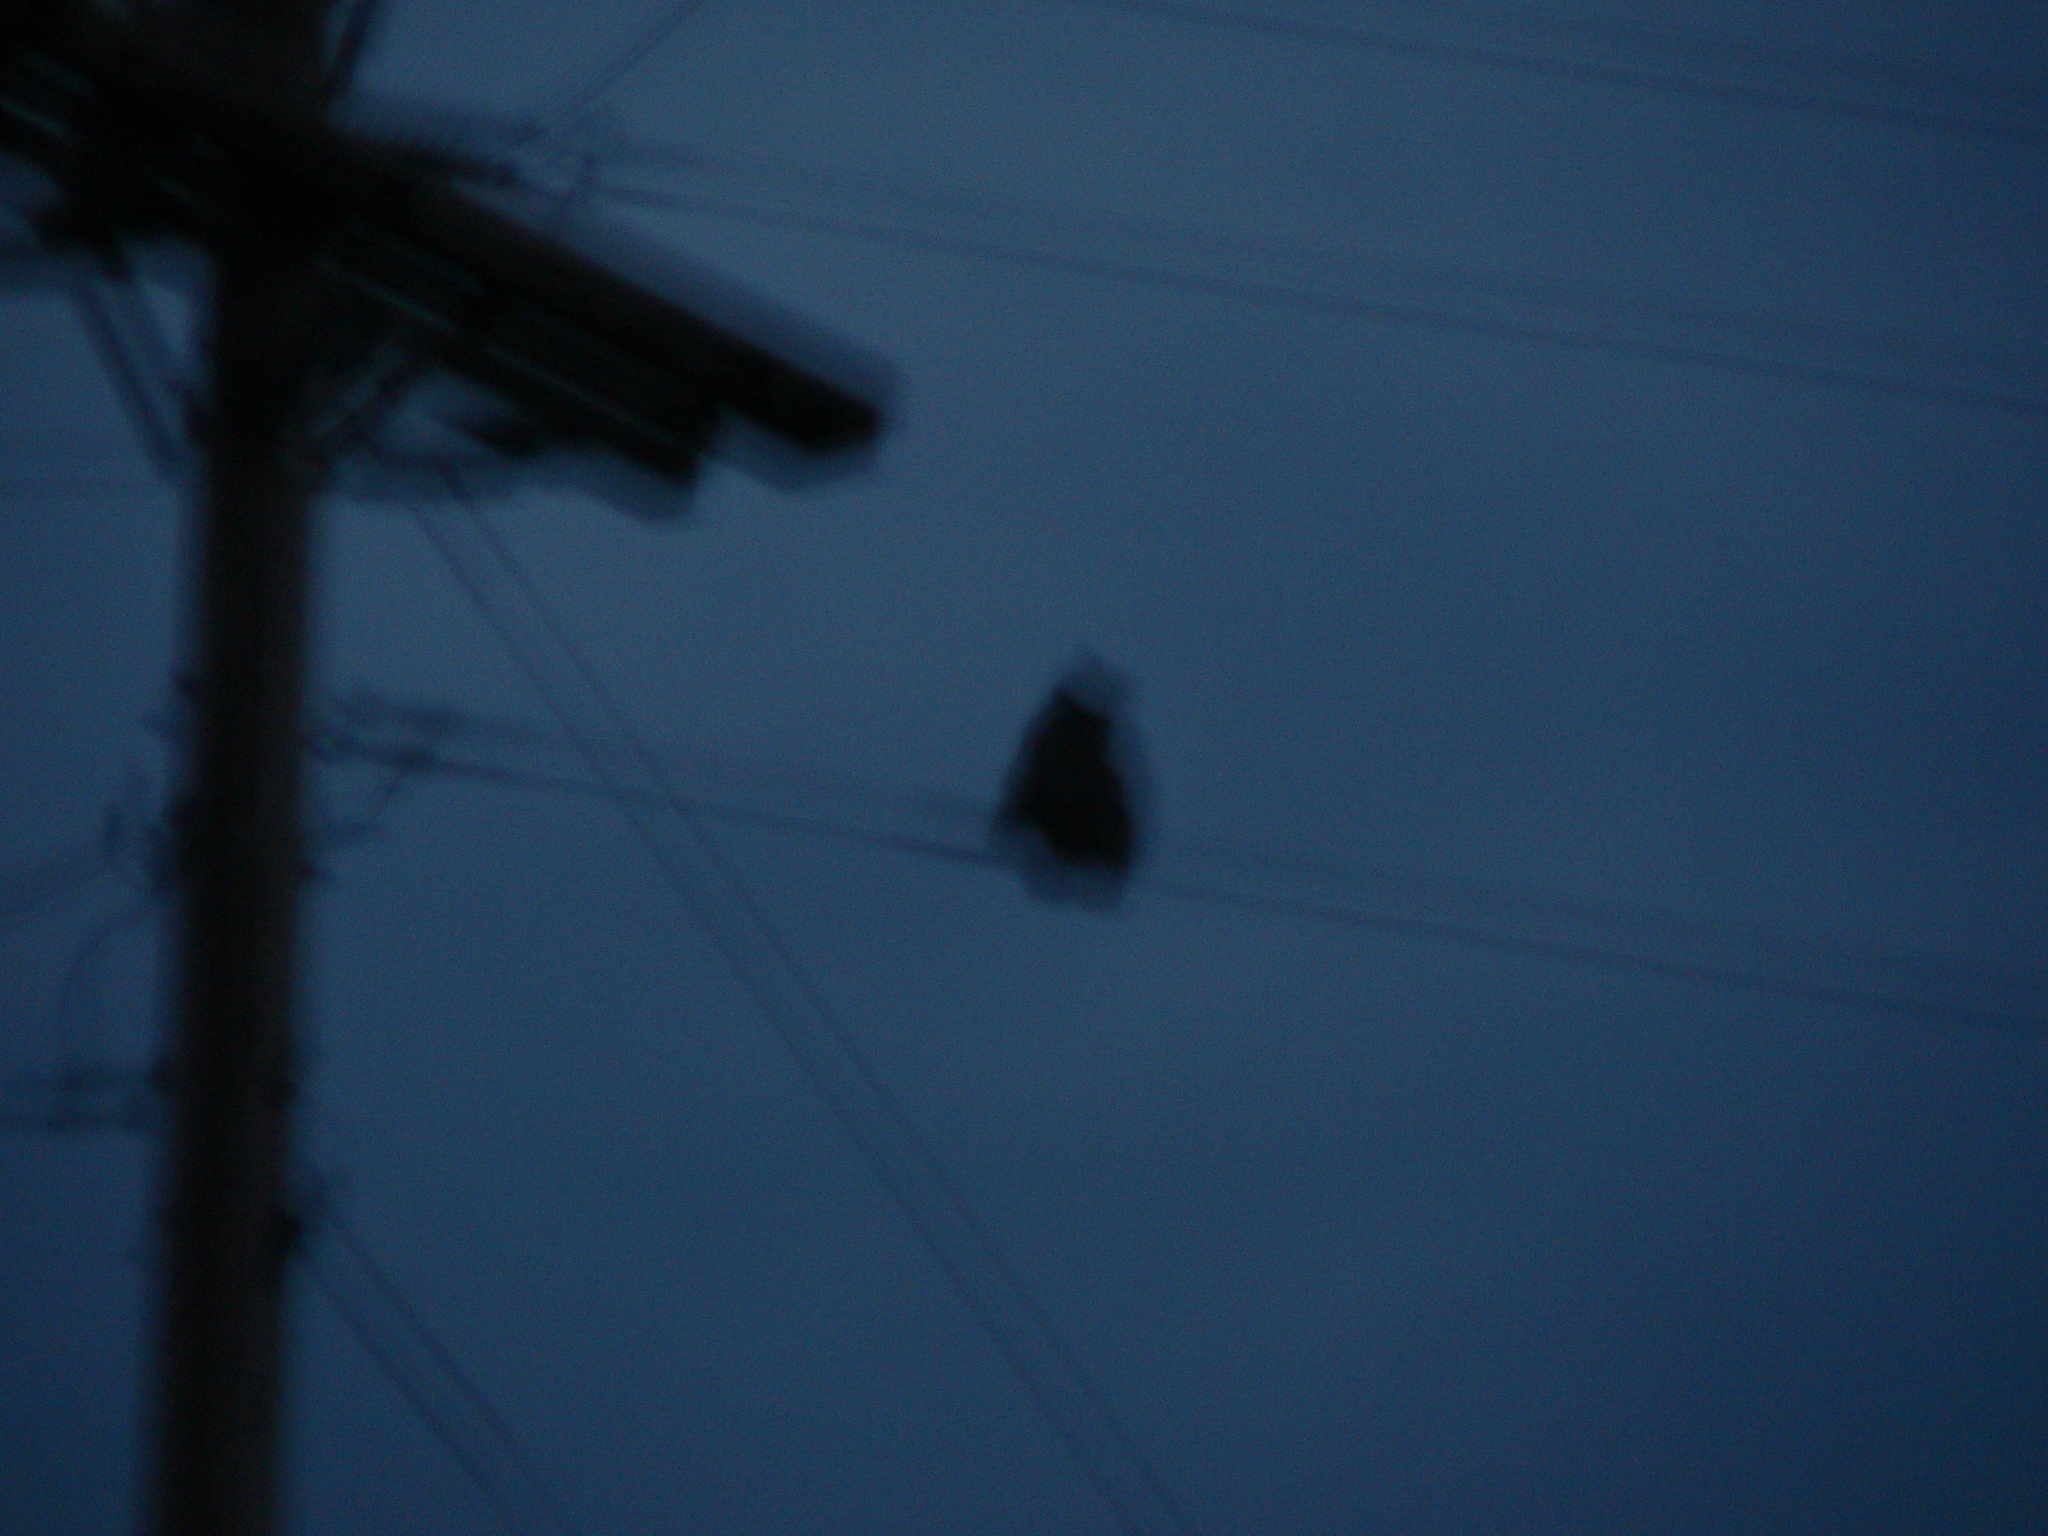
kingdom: Animalia
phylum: Chordata
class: Aves
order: Strigiformes
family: Strigidae
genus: Bubo
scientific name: Bubo virginianus
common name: Great horned owl
